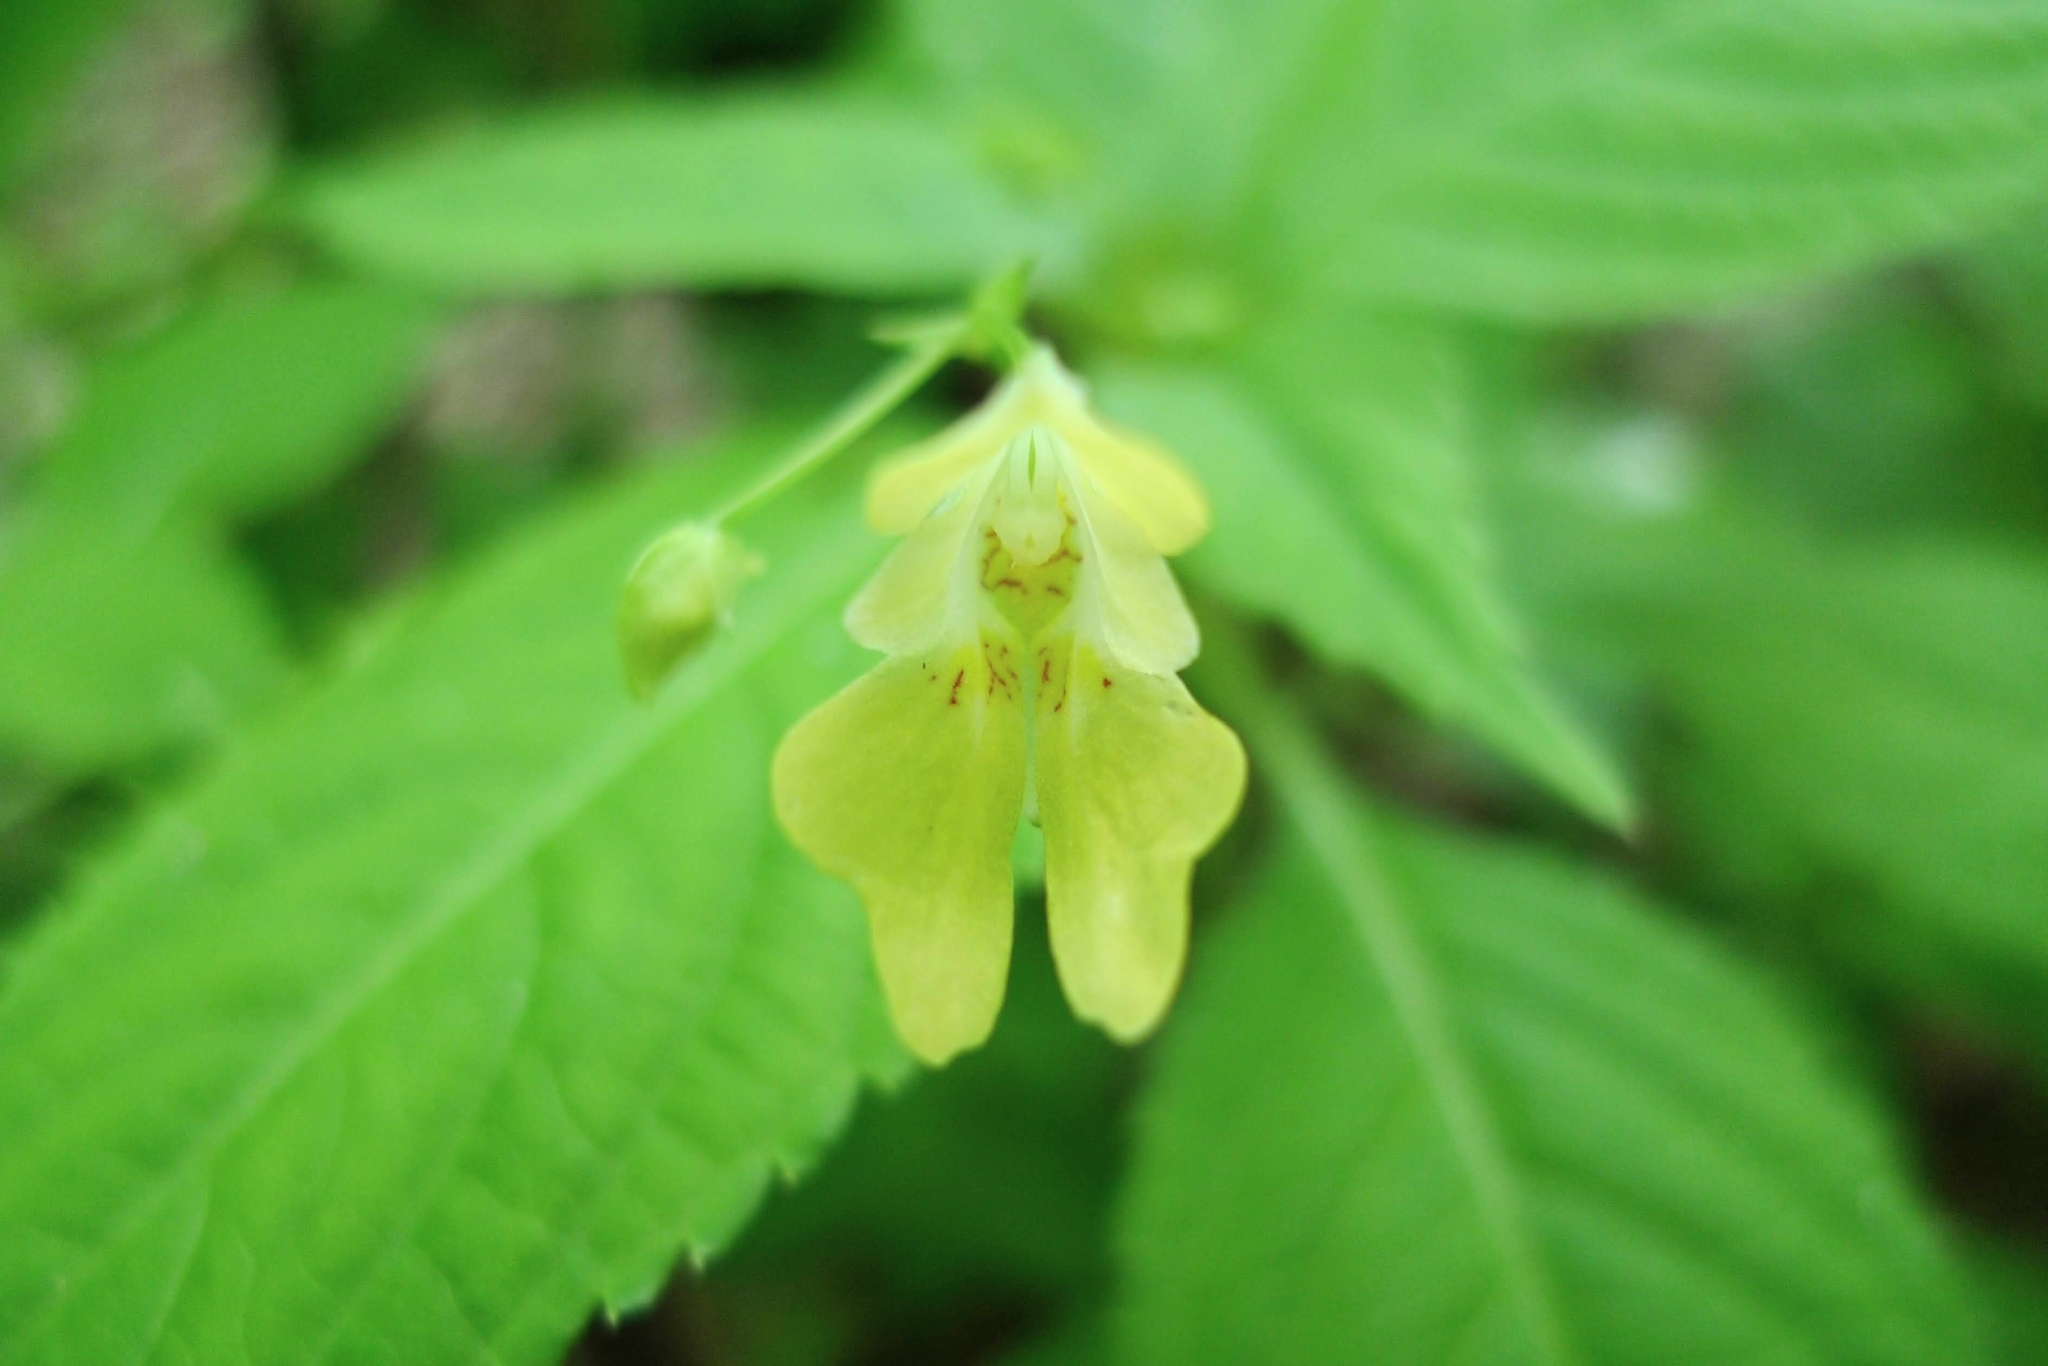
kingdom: Plantae
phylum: Tracheophyta
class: Magnoliopsida
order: Ericales
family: Balsaminaceae
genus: Impatiens
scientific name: Impatiens parviflora
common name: Small balsam
